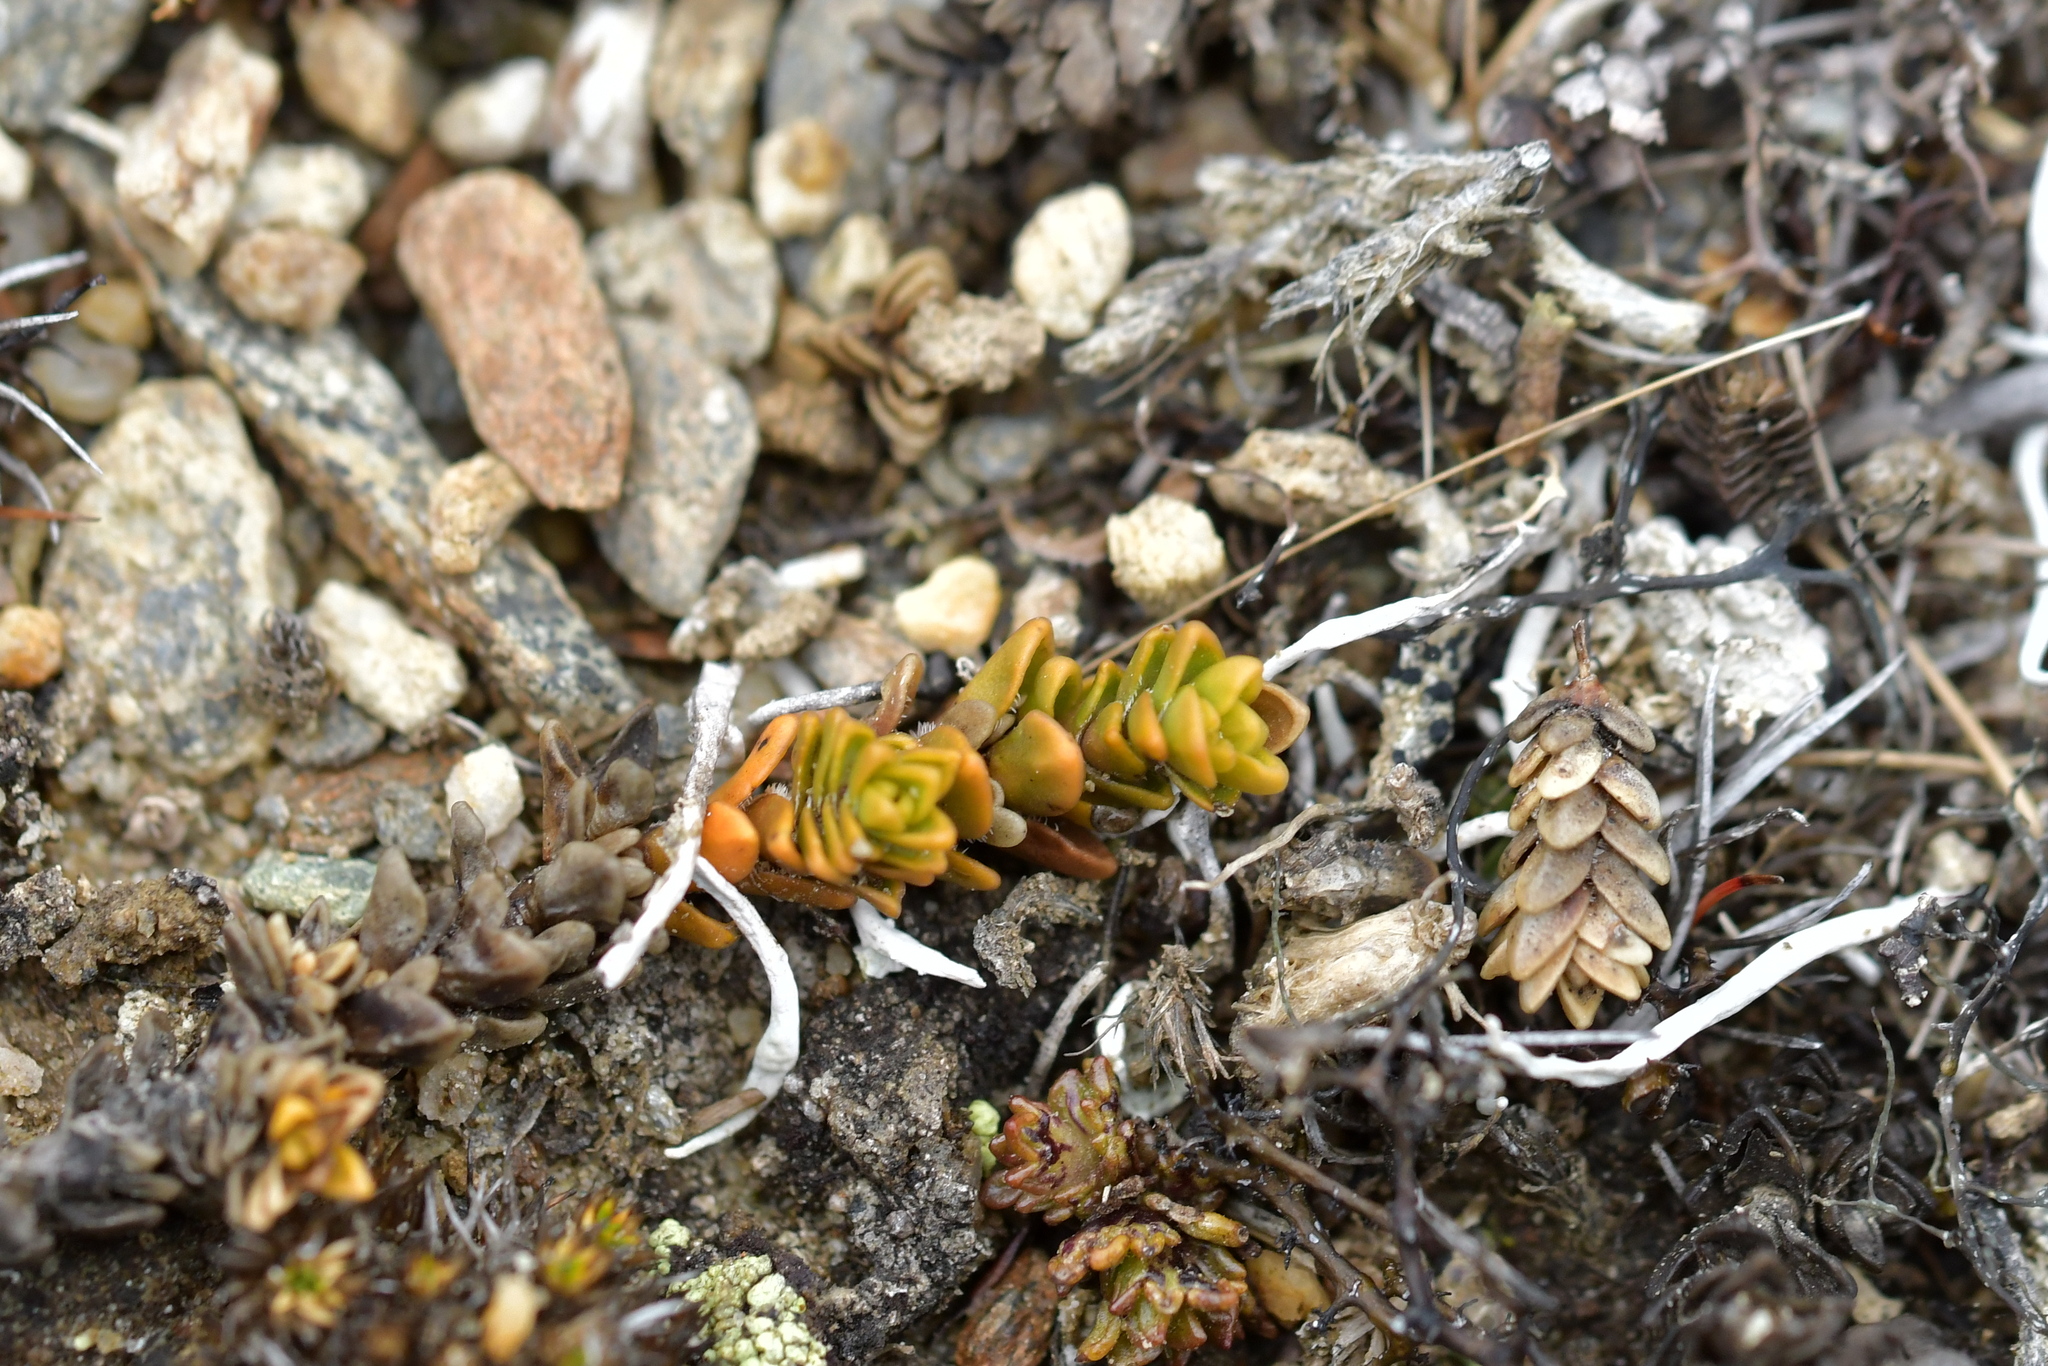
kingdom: Plantae
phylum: Tracheophyta
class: Magnoliopsida
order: Lamiales
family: Plantaginaceae
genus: Veronica
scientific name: Veronica densifolia
